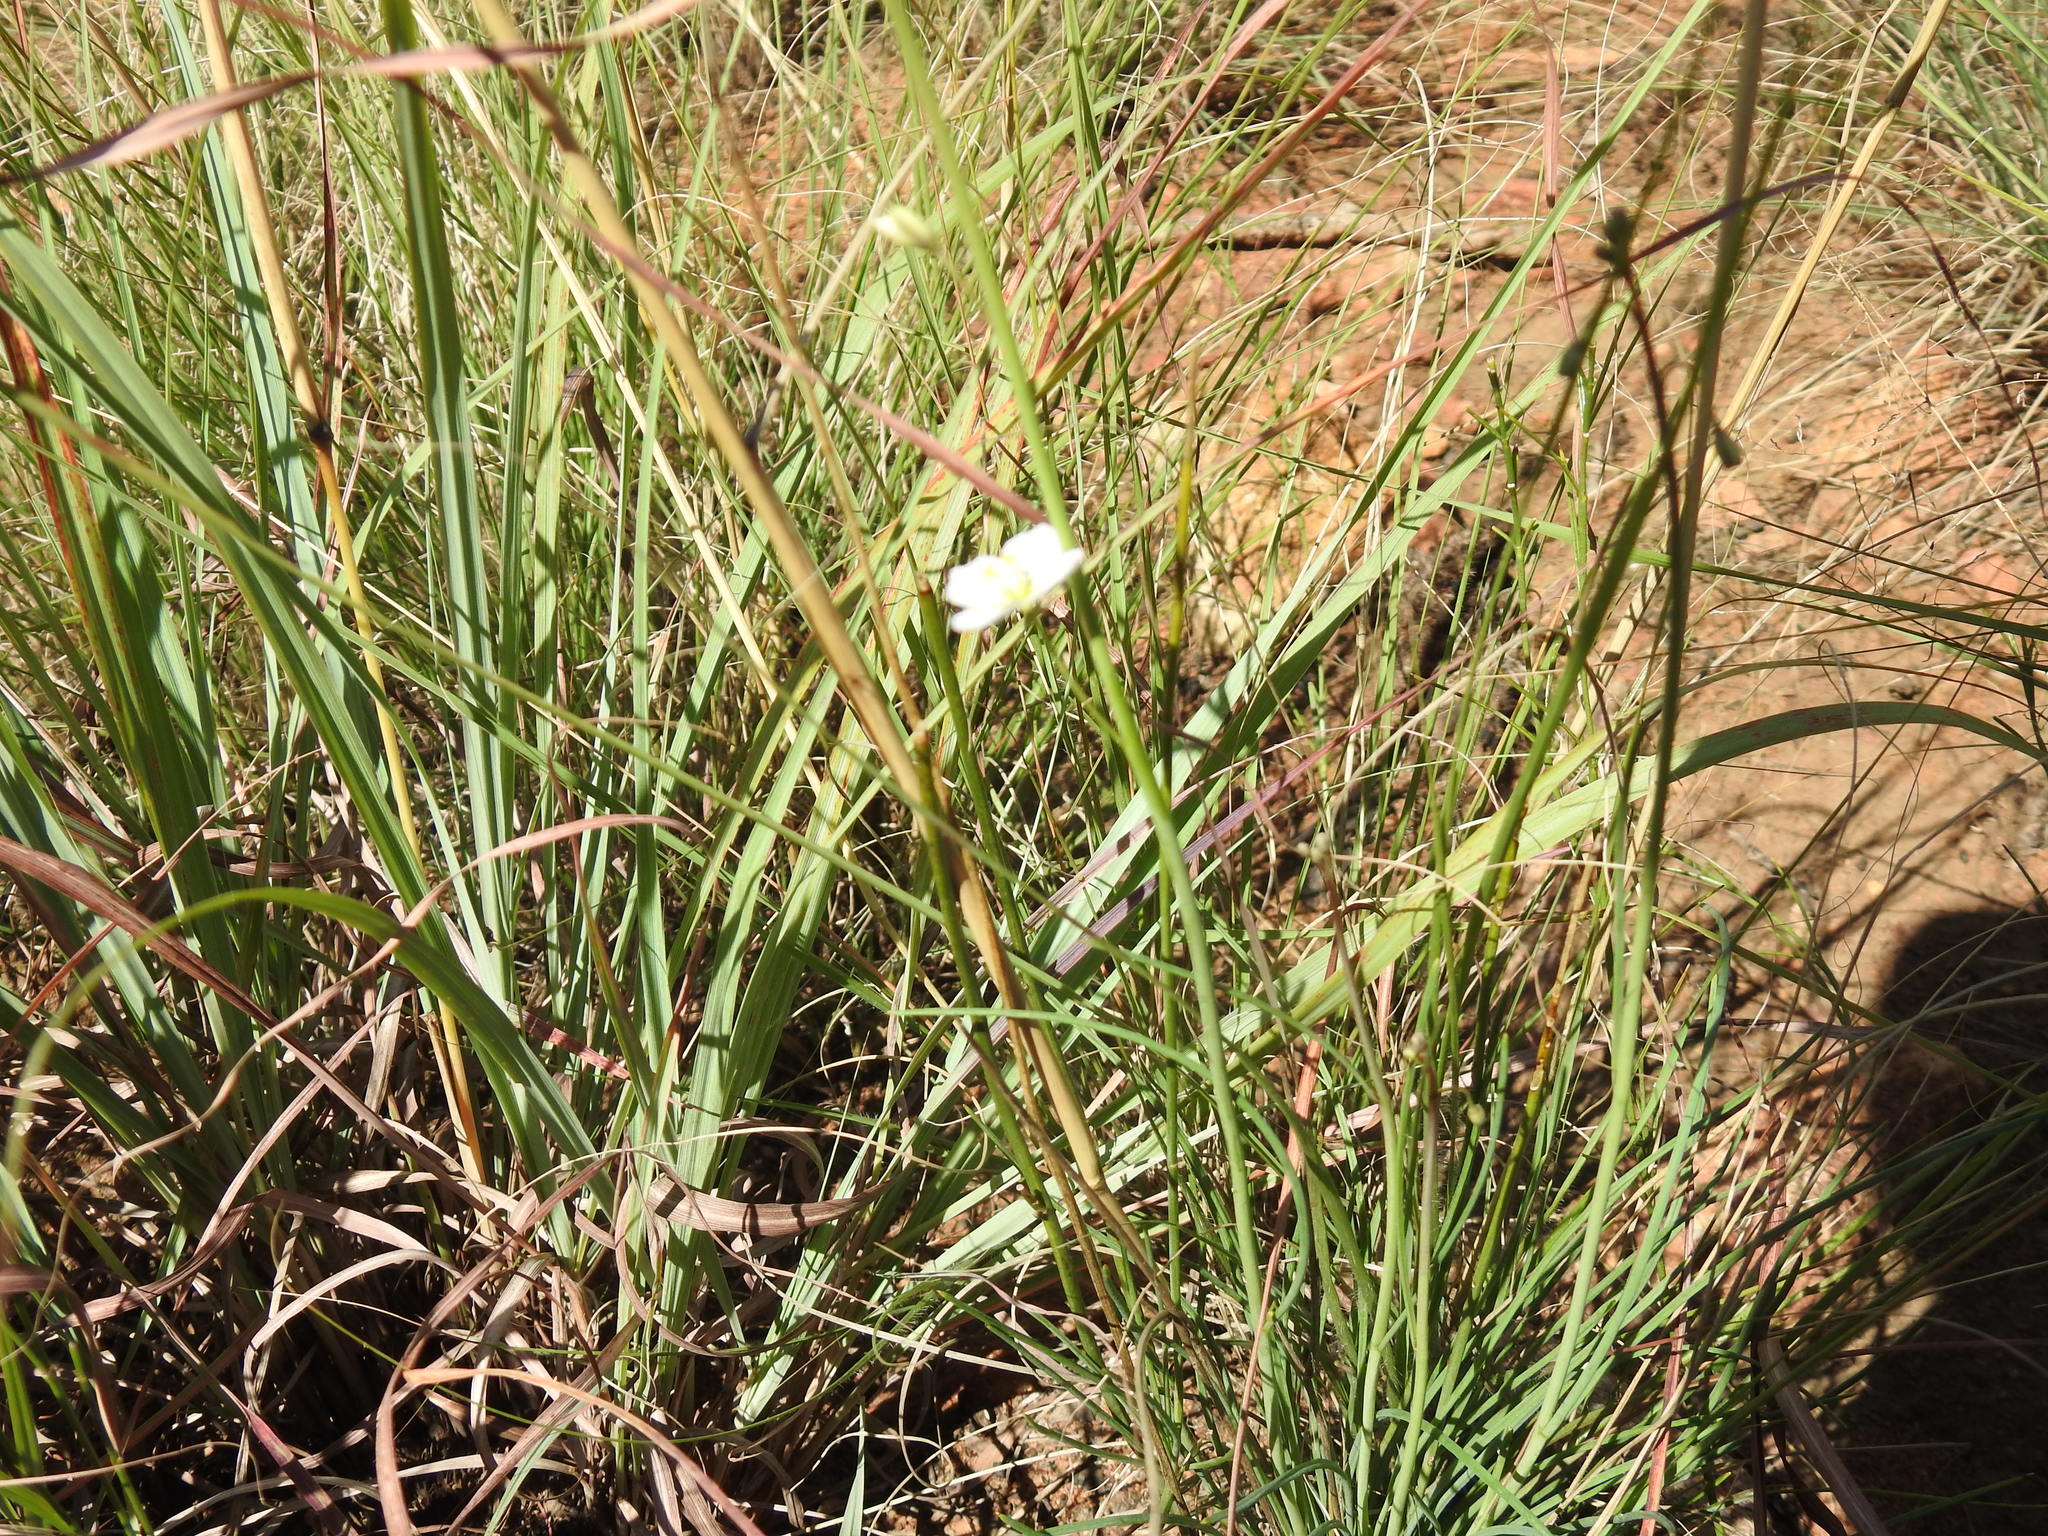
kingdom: Plantae
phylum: Tracheophyta
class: Magnoliopsida
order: Brassicales
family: Brassicaceae
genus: Heliophila
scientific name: Heliophila carnosa
